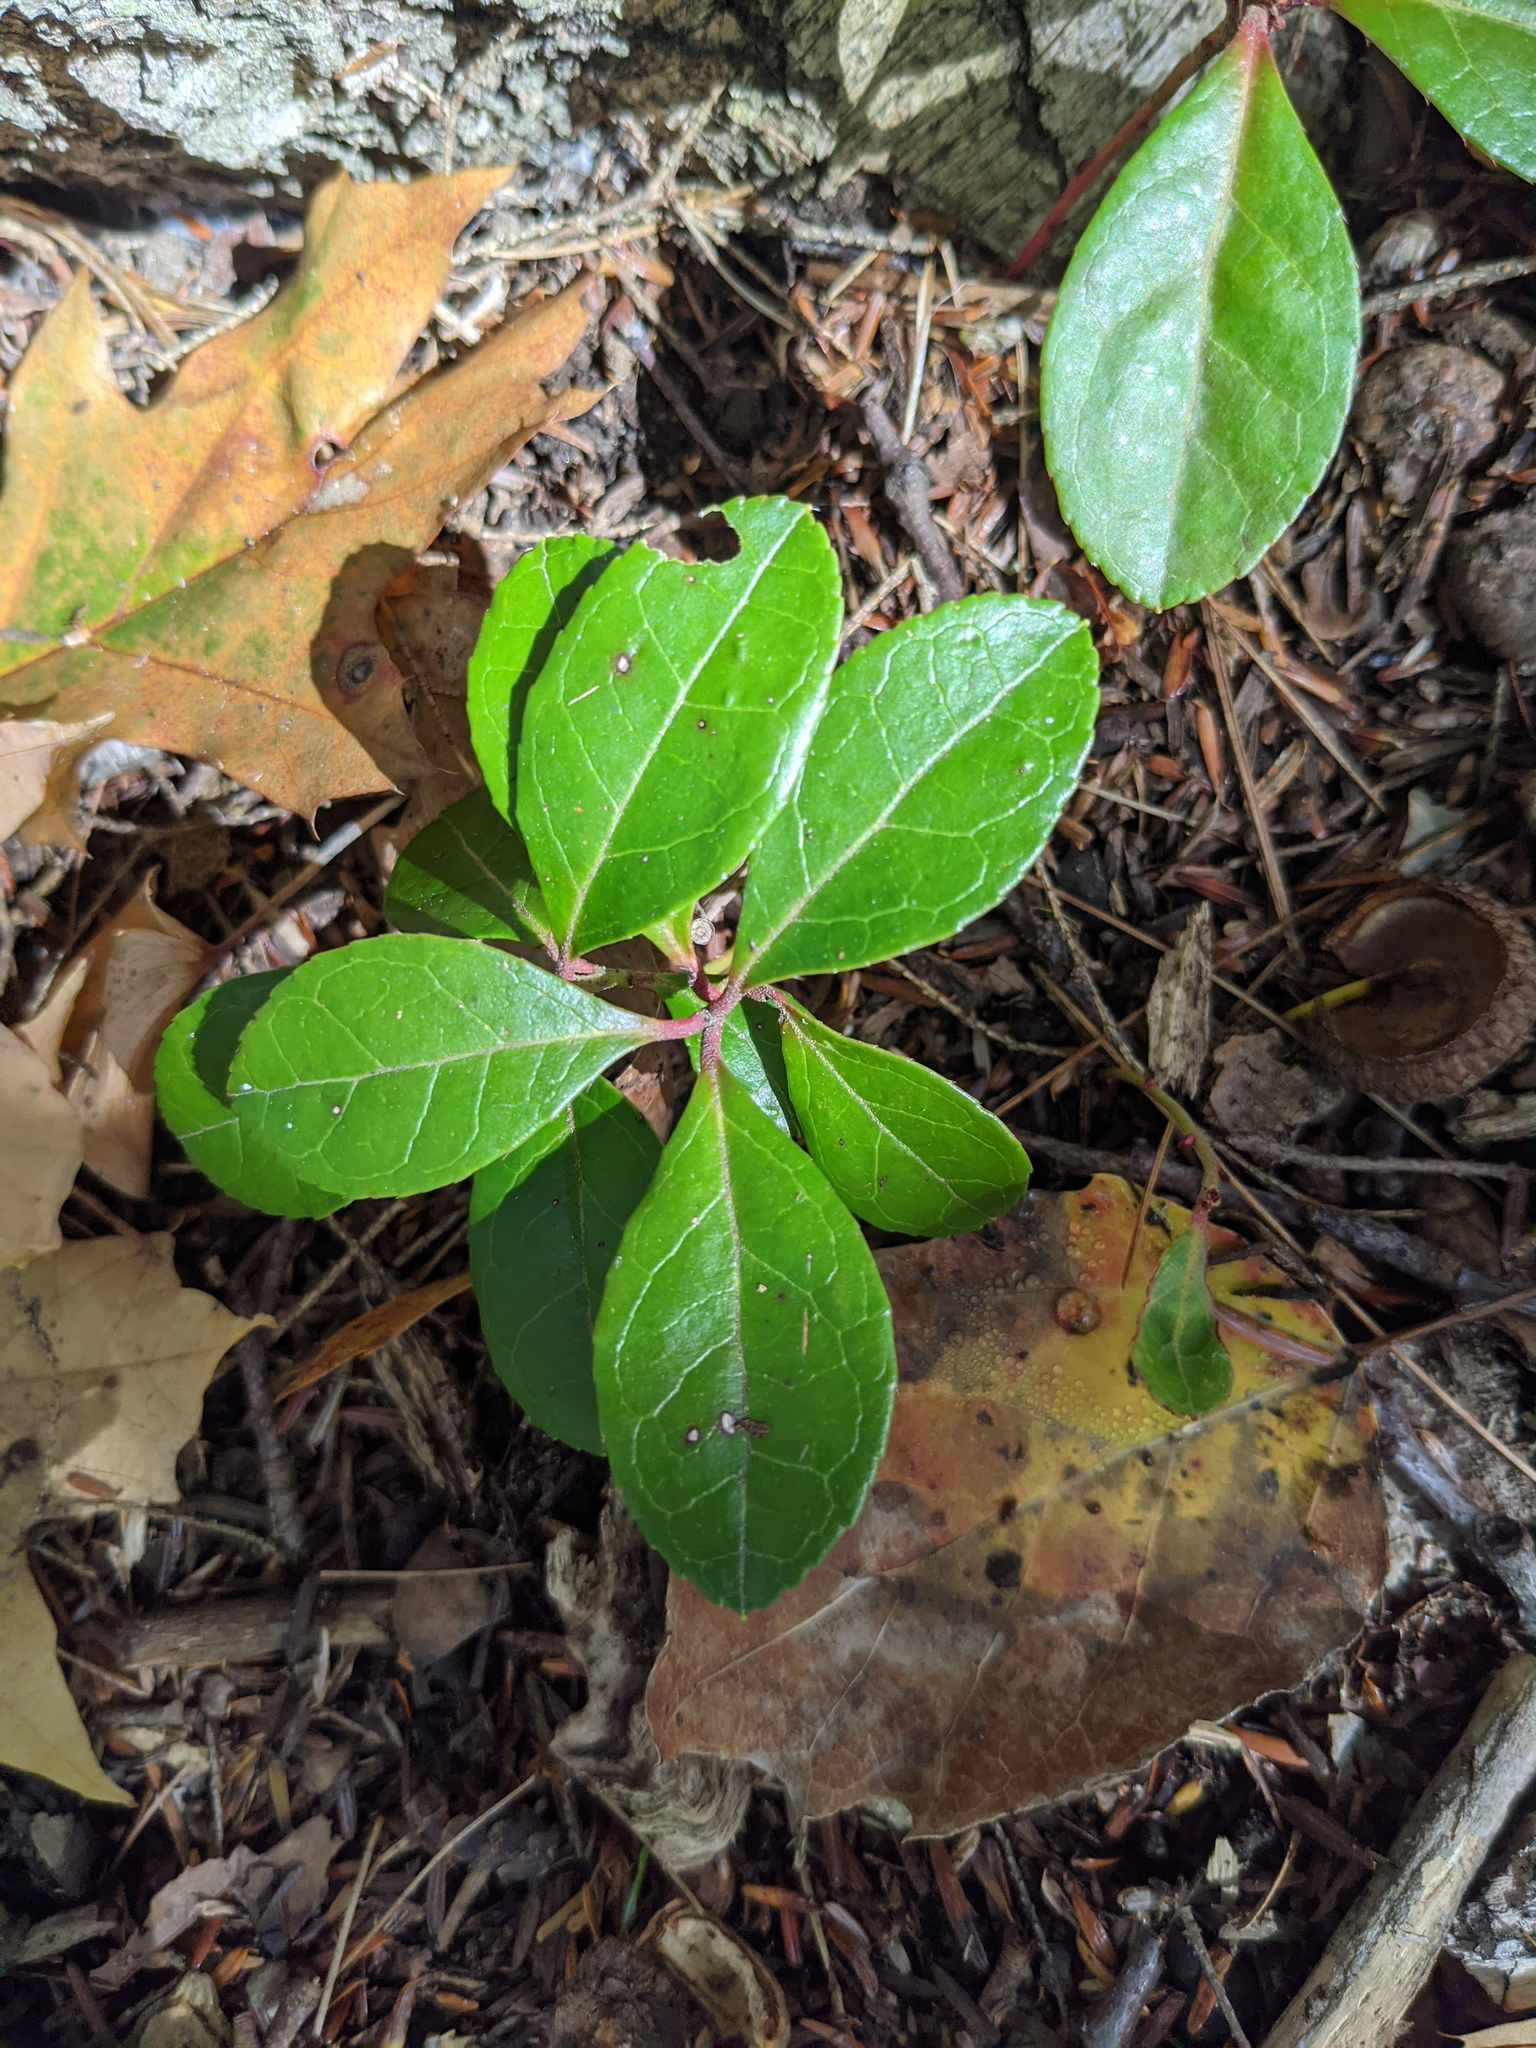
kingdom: Plantae
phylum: Tracheophyta
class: Magnoliopsida
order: Ericales
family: Ericaceae
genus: Gaultheria
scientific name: Gaultheria procumbens
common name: Checkerberry
